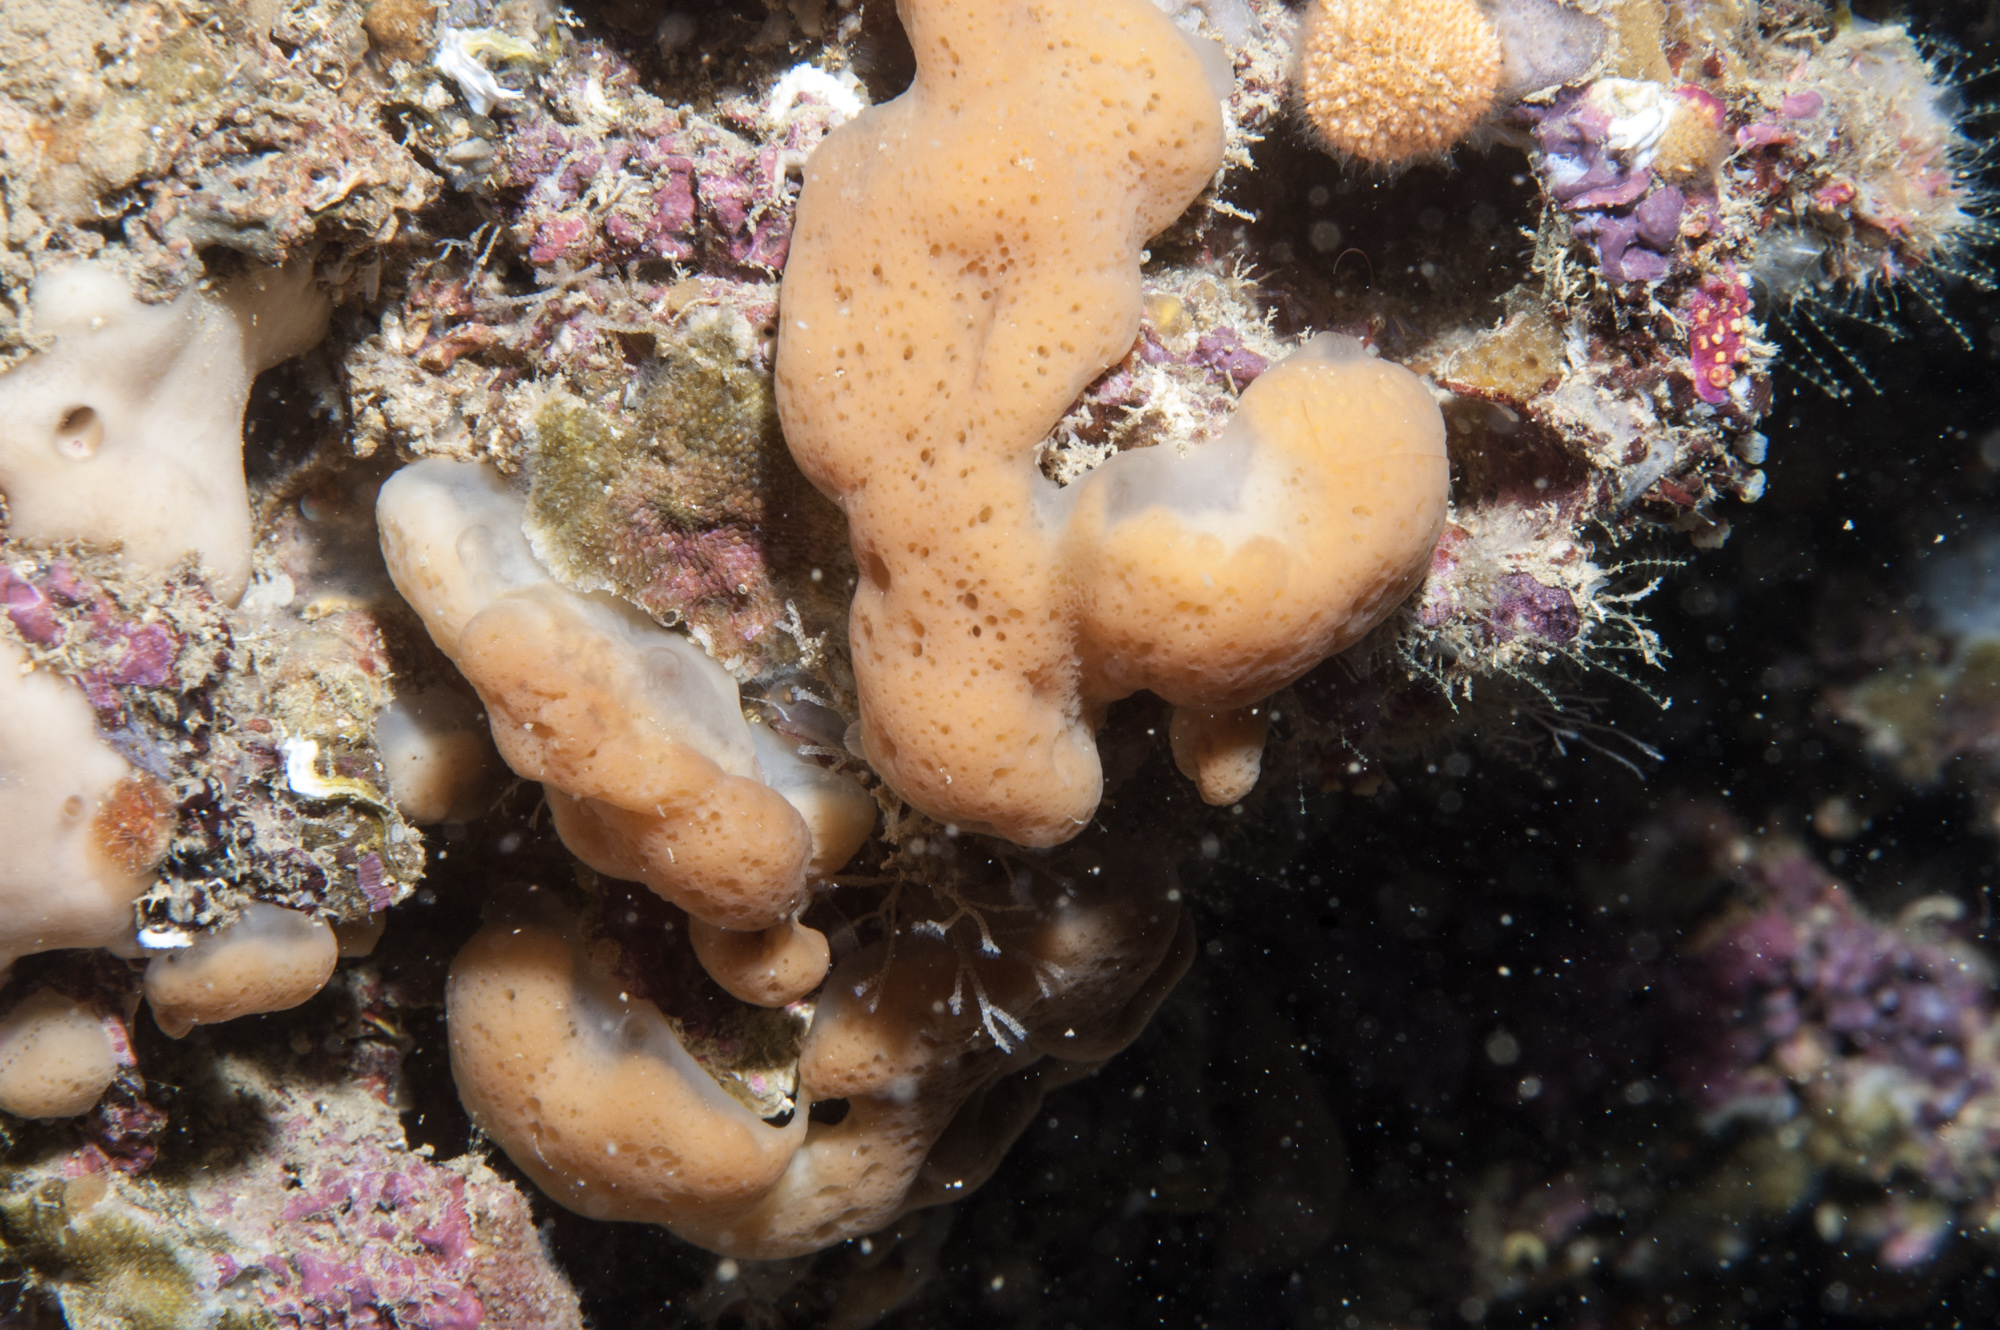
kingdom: Animalia
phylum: Porifera
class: Homoscleromorpha
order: Homosclerophorida
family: Plakinidae
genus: Corticium
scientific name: Corticium candelabrum
